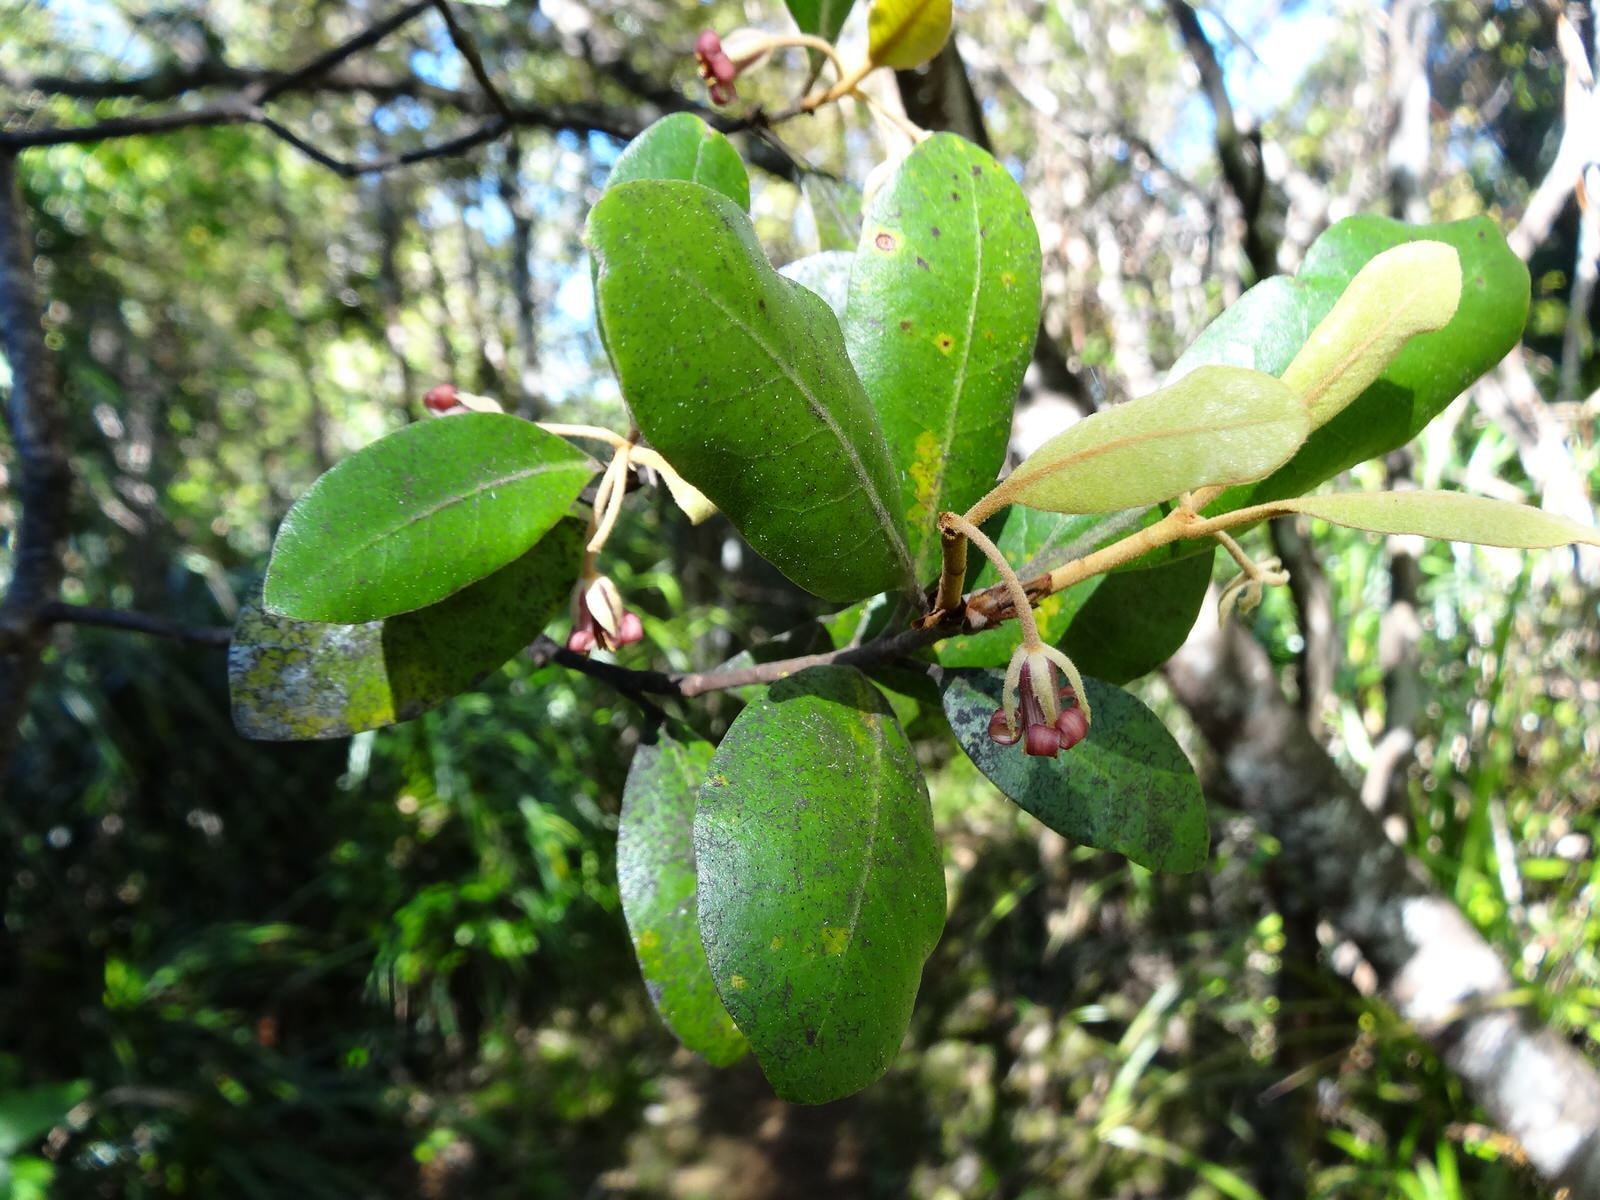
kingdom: Plantae
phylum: Tracheophyta
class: Magnoliopsida
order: Apiales
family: Pittosporaceae
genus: Pittosporum
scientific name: Pittosporum ellipticum
